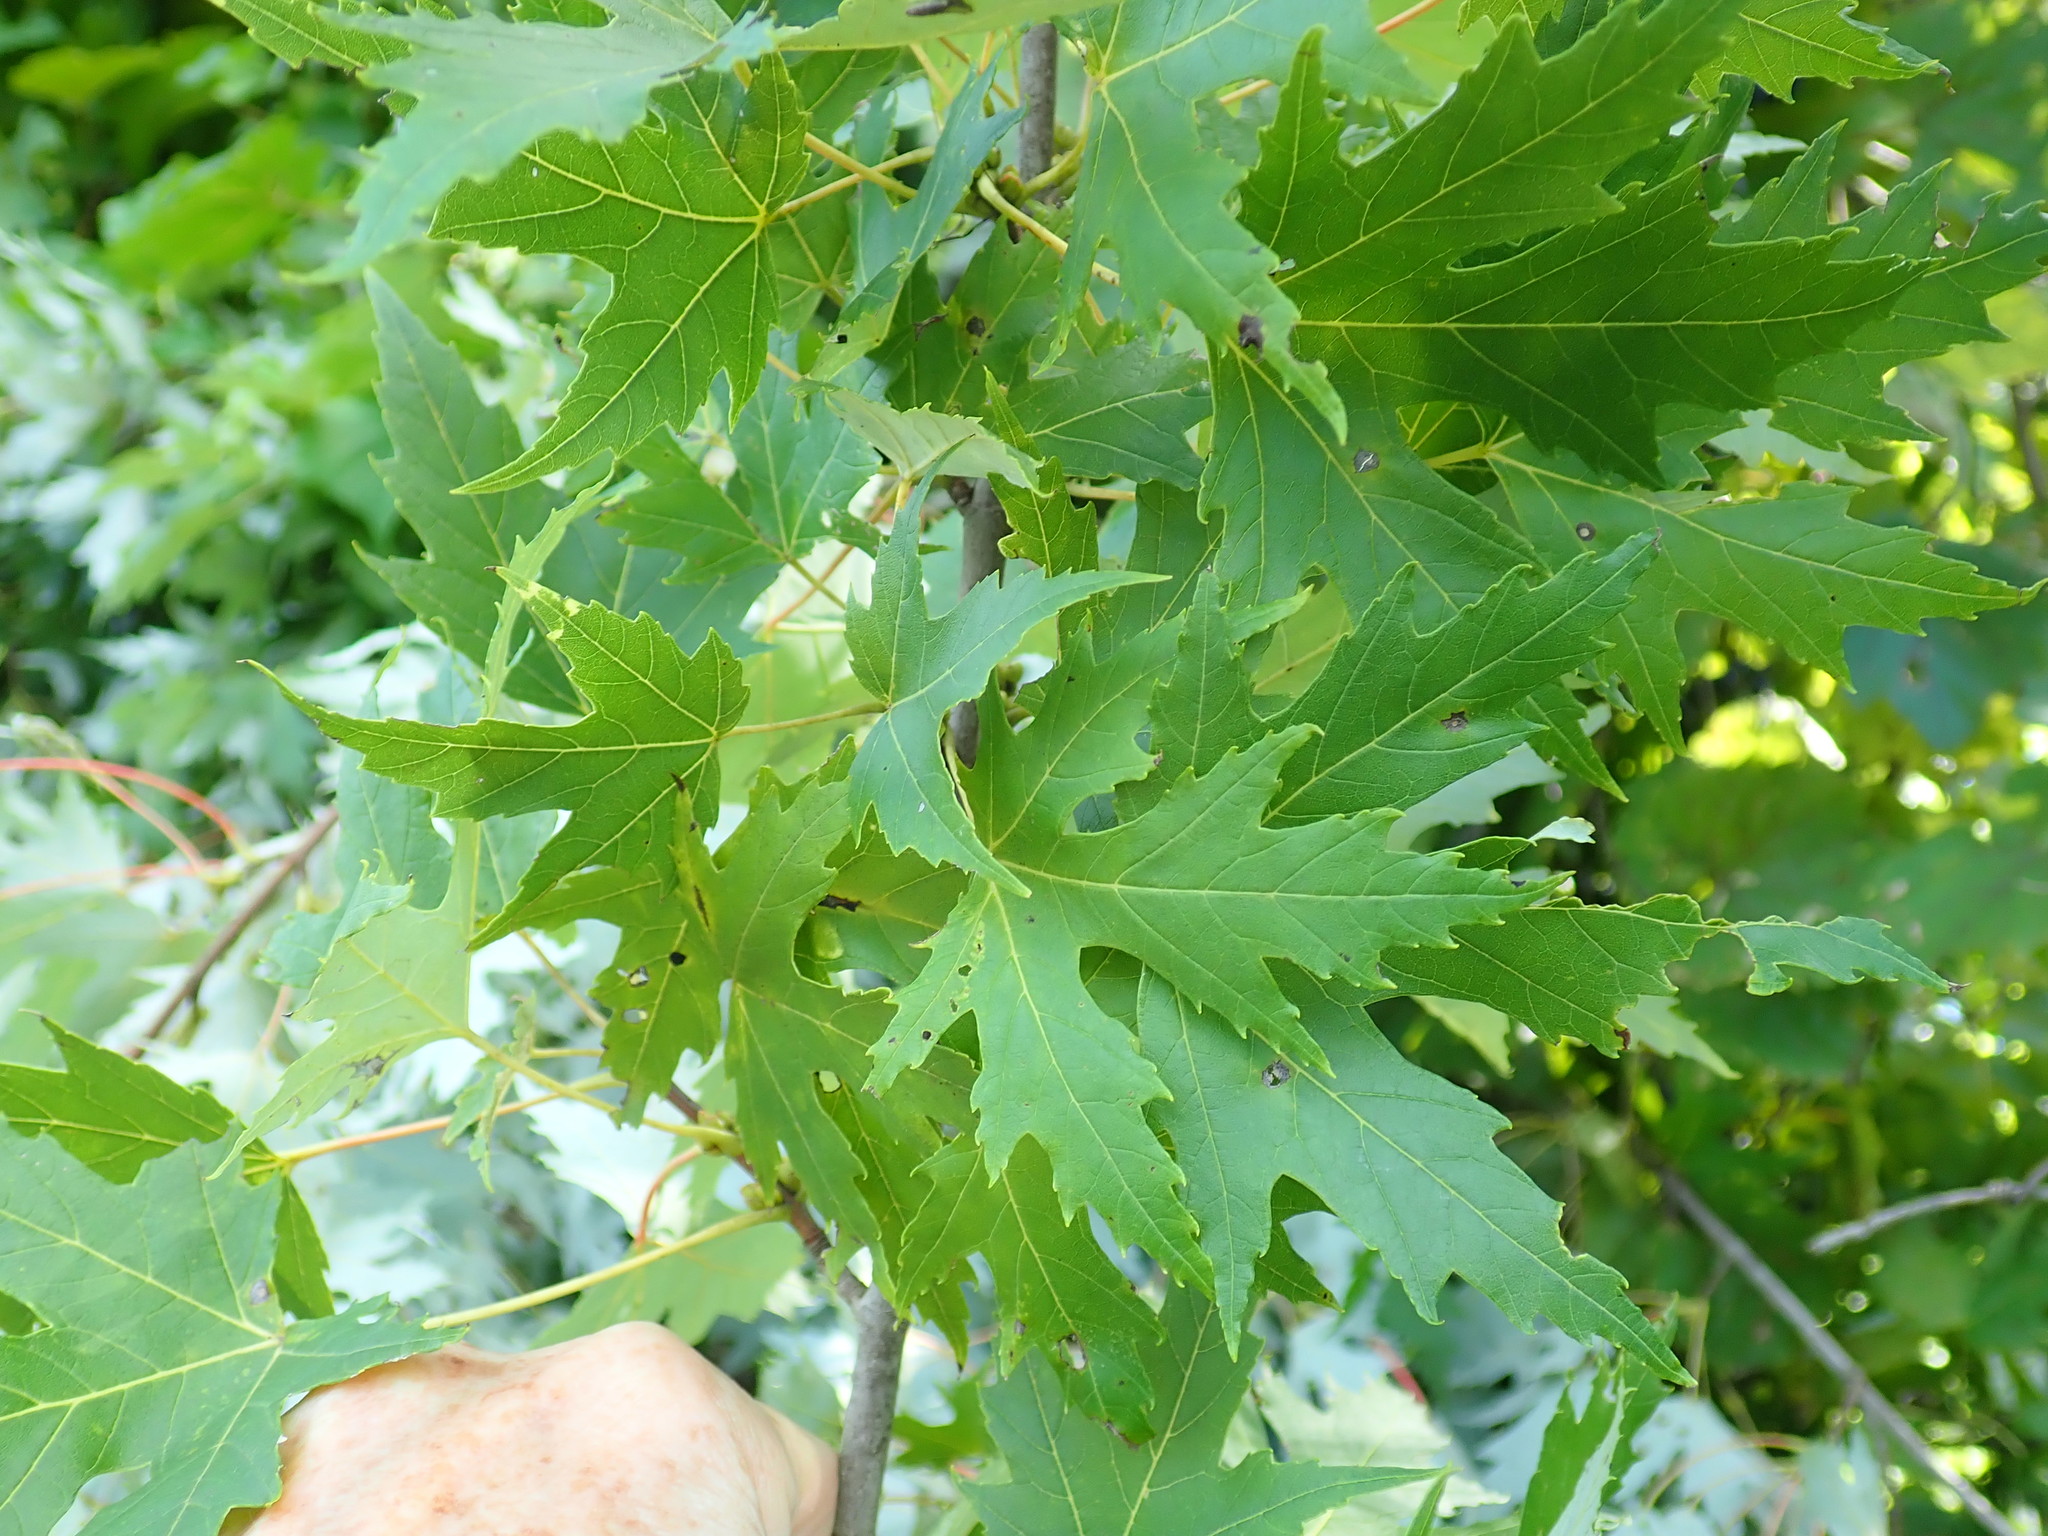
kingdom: Plantae
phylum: Tracheophyta
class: Magnoliopsida
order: Sapindales
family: Sapindaceae
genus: Acer
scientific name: Acer saccharinum
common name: Silver maple
